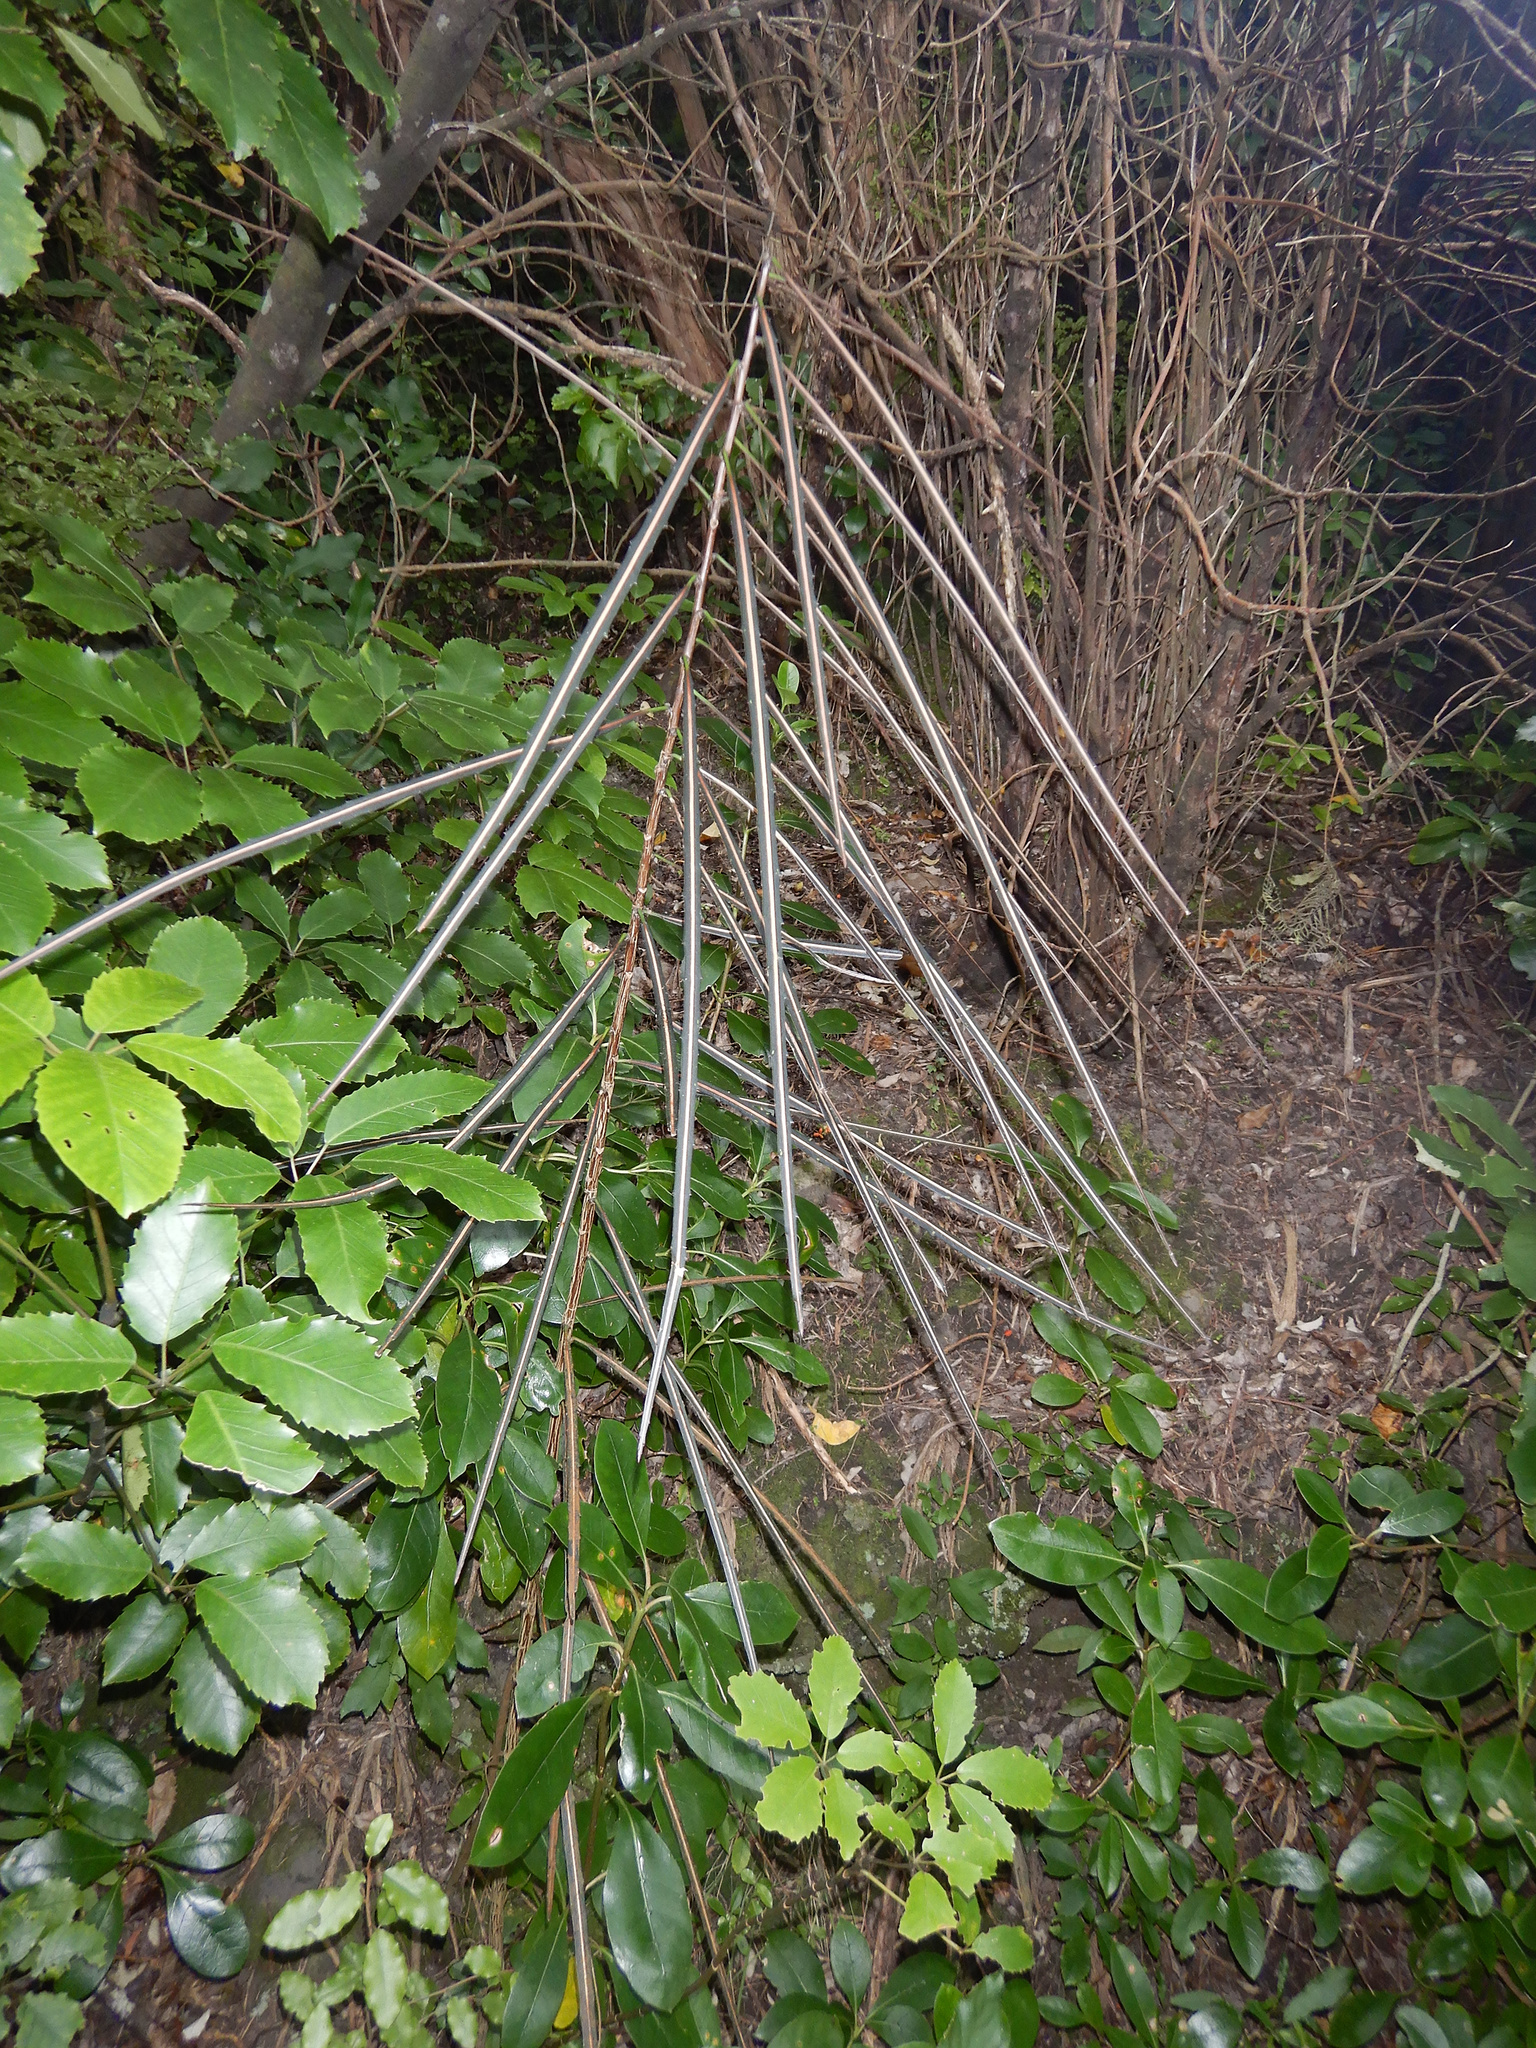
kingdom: Plantae
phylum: Tracheophyta
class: Magnoliopsida
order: Apiales
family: Araliaceae
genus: Pseudopanax
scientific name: Pseudopanax crassifolius
